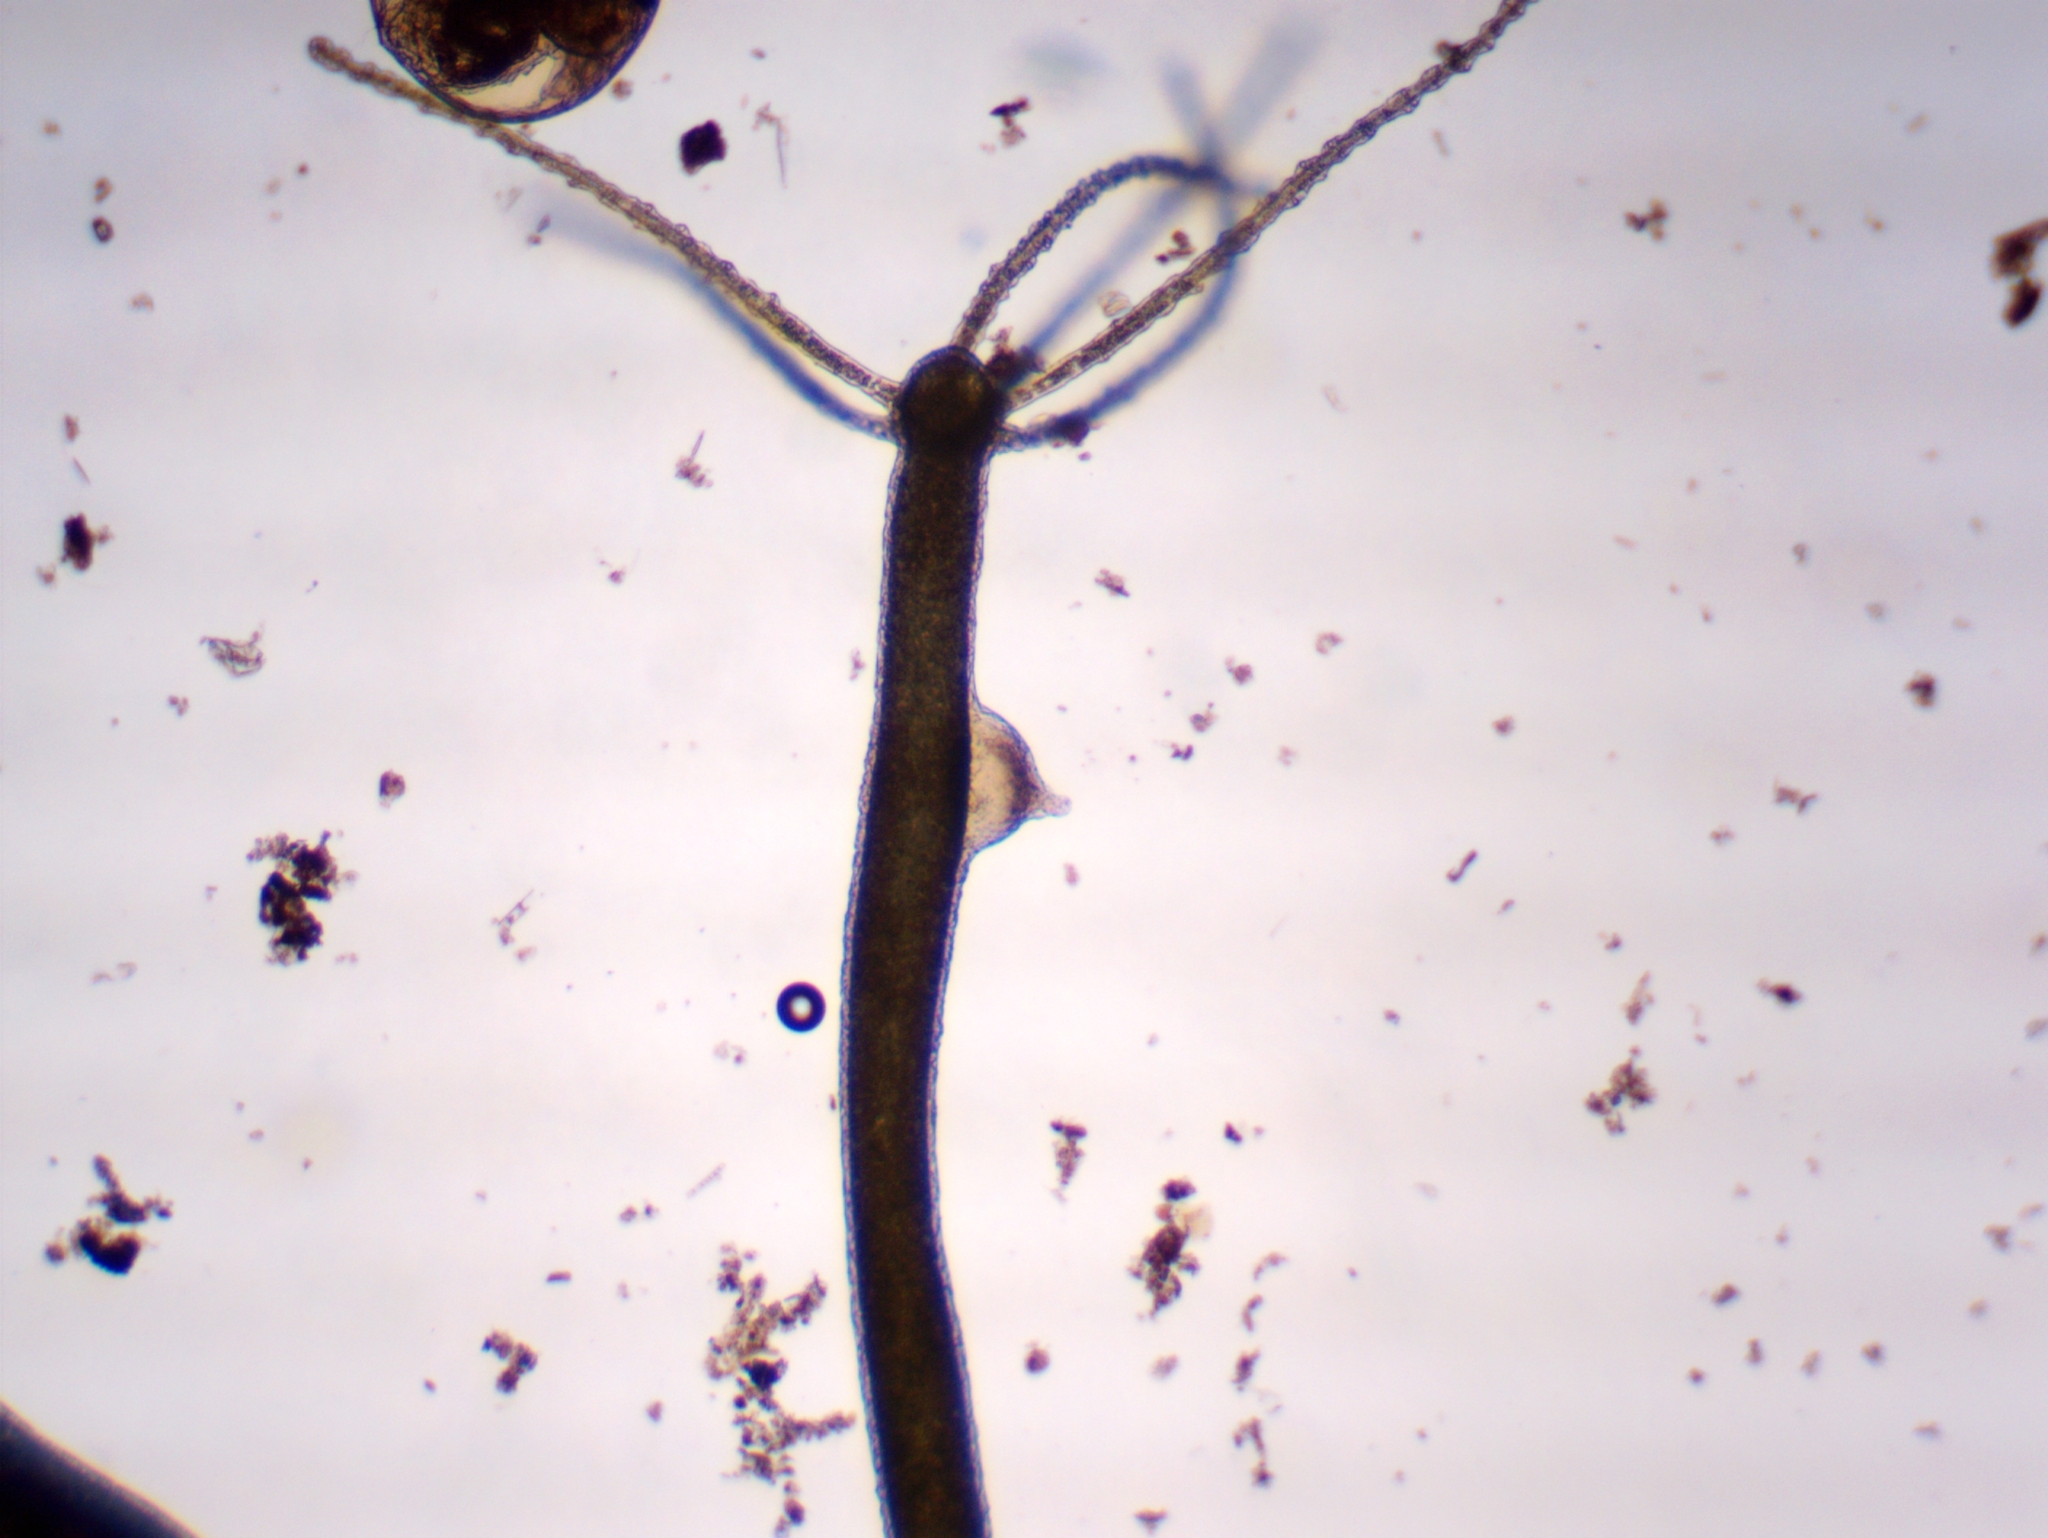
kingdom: Animalia
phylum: Cnidaria
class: Hydrozoa
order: Anthoathecata
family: Hydridae
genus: Hydra
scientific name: Hydra viridissima
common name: Green hydra
